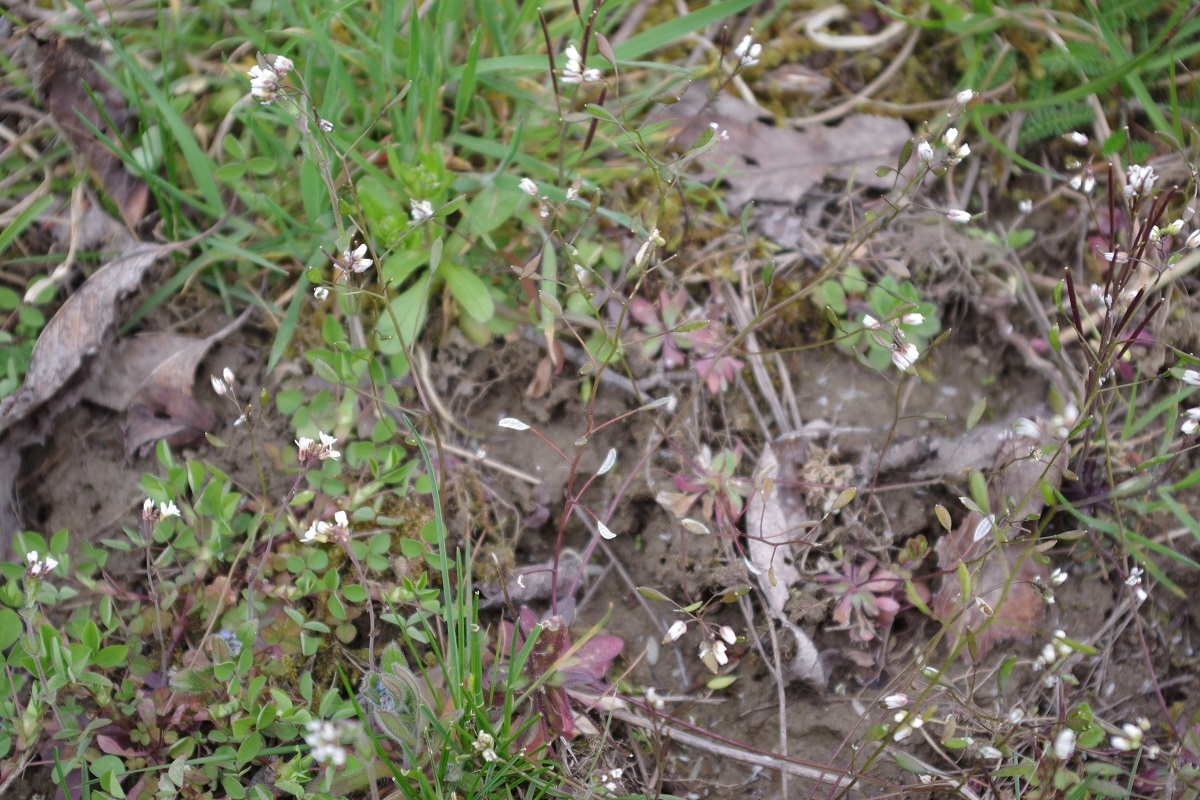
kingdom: Plantae
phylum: Tracheophyta
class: Magnoliopsida
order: Brassicales
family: Brassicaceae
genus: Draba
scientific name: Draba verna
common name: Spring draba
